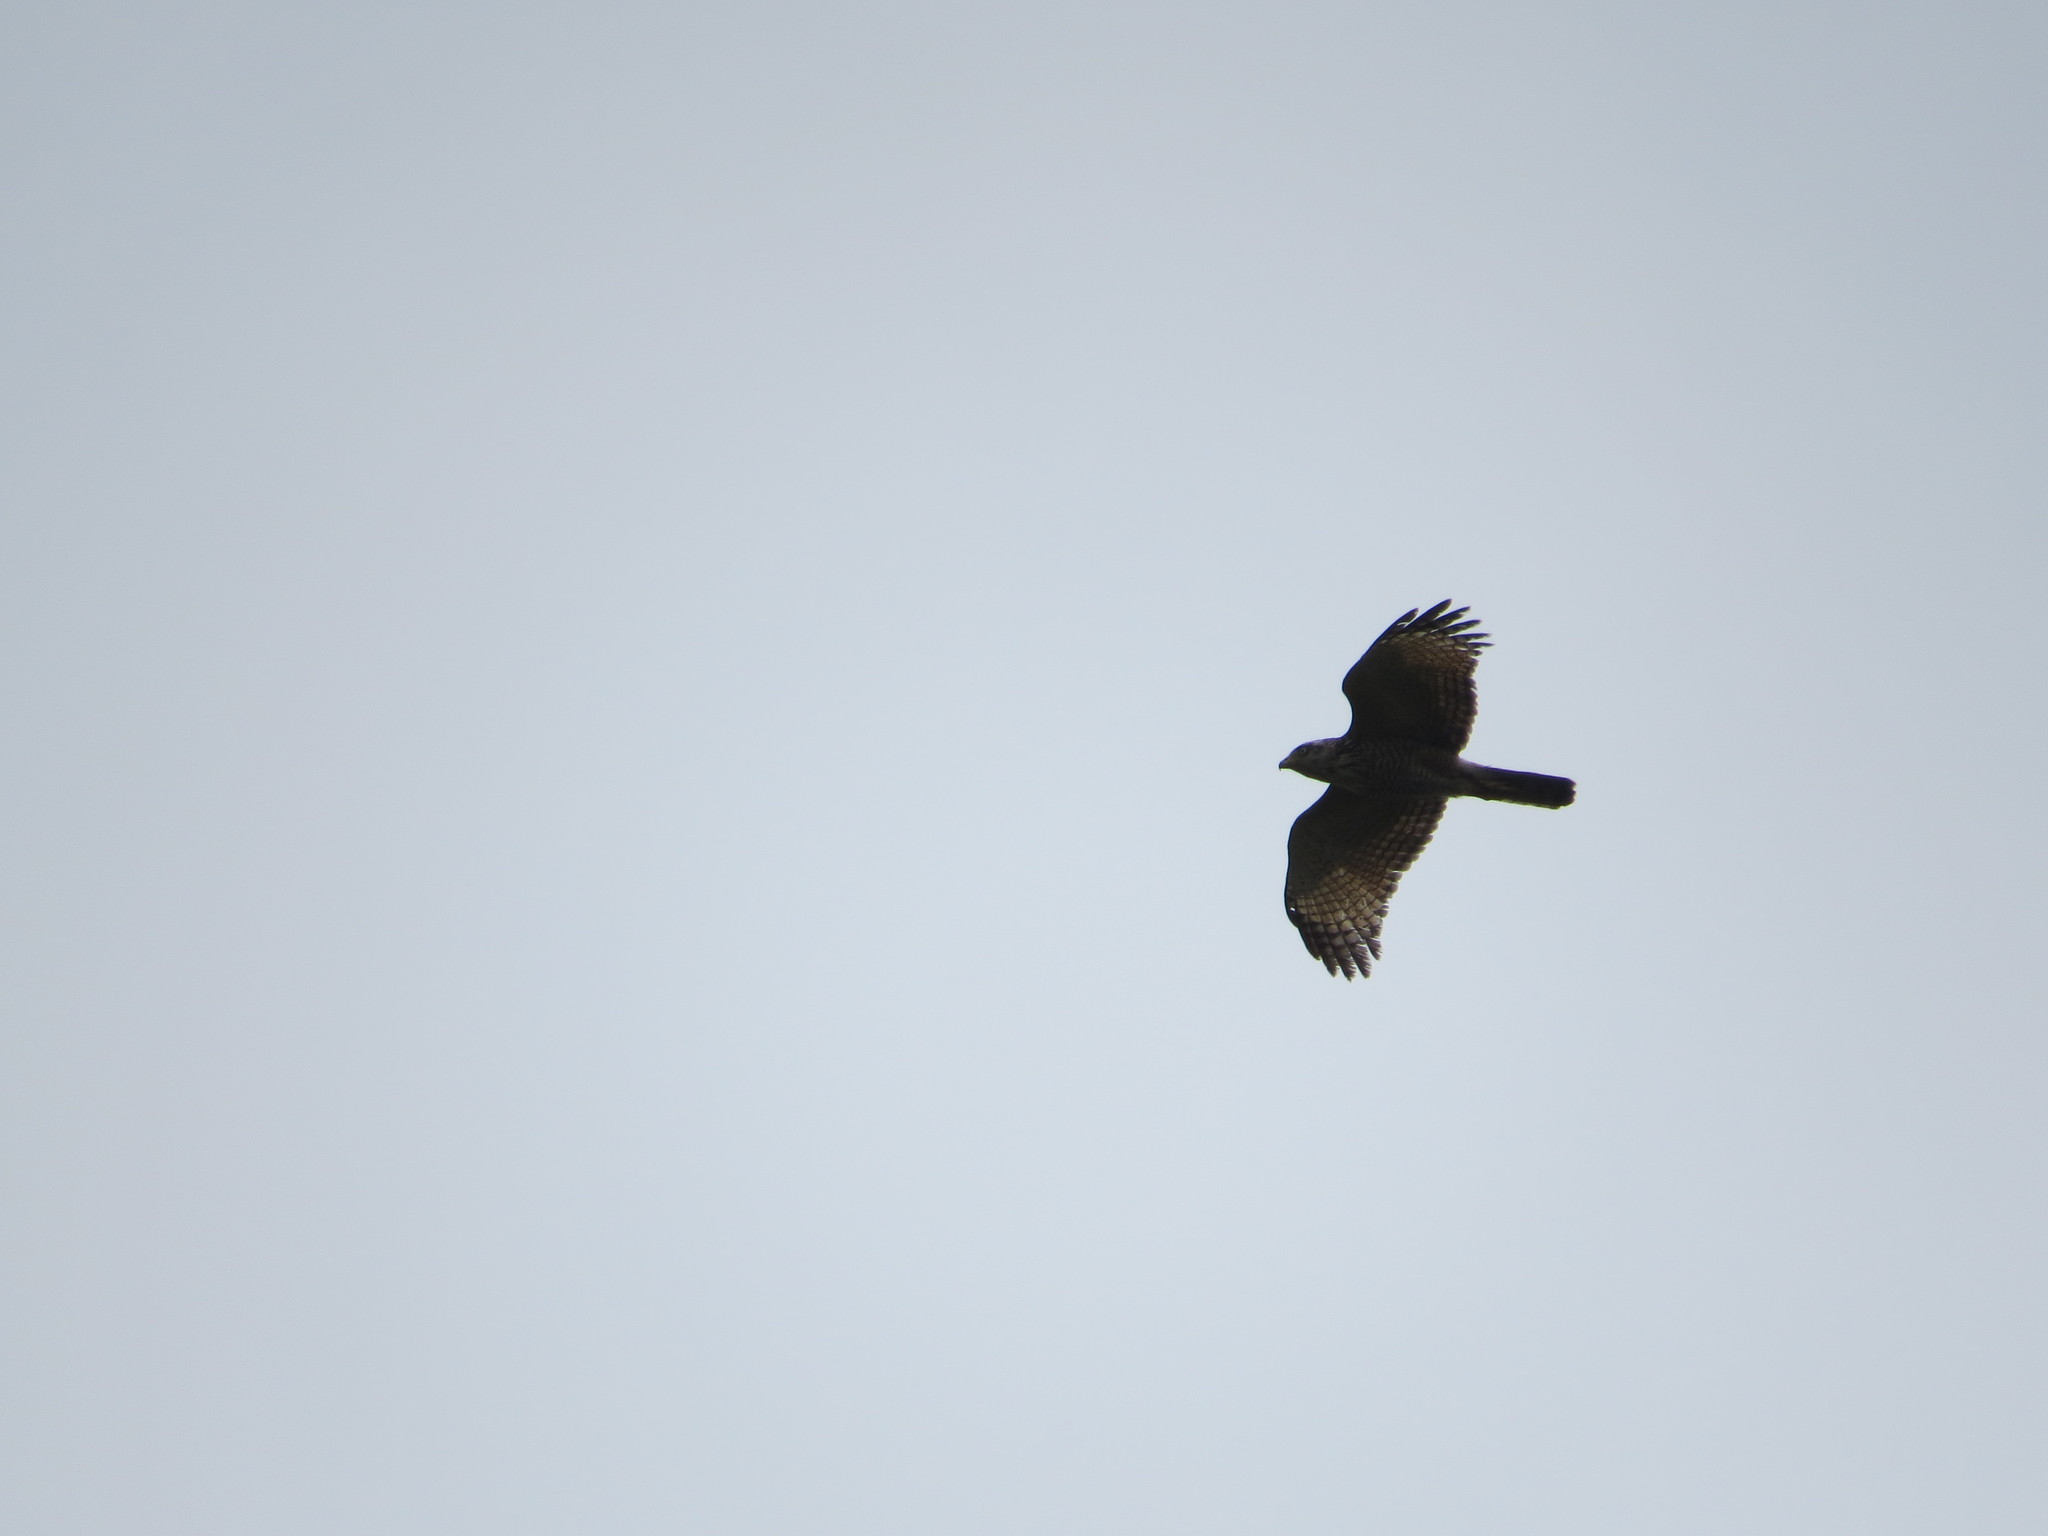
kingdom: Animalia
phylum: Chordata
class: Aves
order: Accipitriformes
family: Accipitridae
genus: Rupornis
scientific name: Rupornis magnirostris
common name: Roadside hawk
